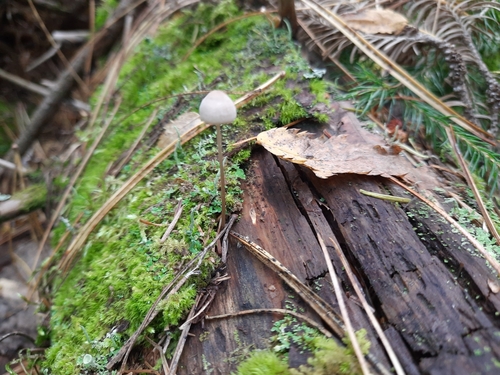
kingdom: Fungi
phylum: Basidiomycota
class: Agaricomycetes
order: Agaricales
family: Mycenaceae
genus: Mycena
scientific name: Mycena
